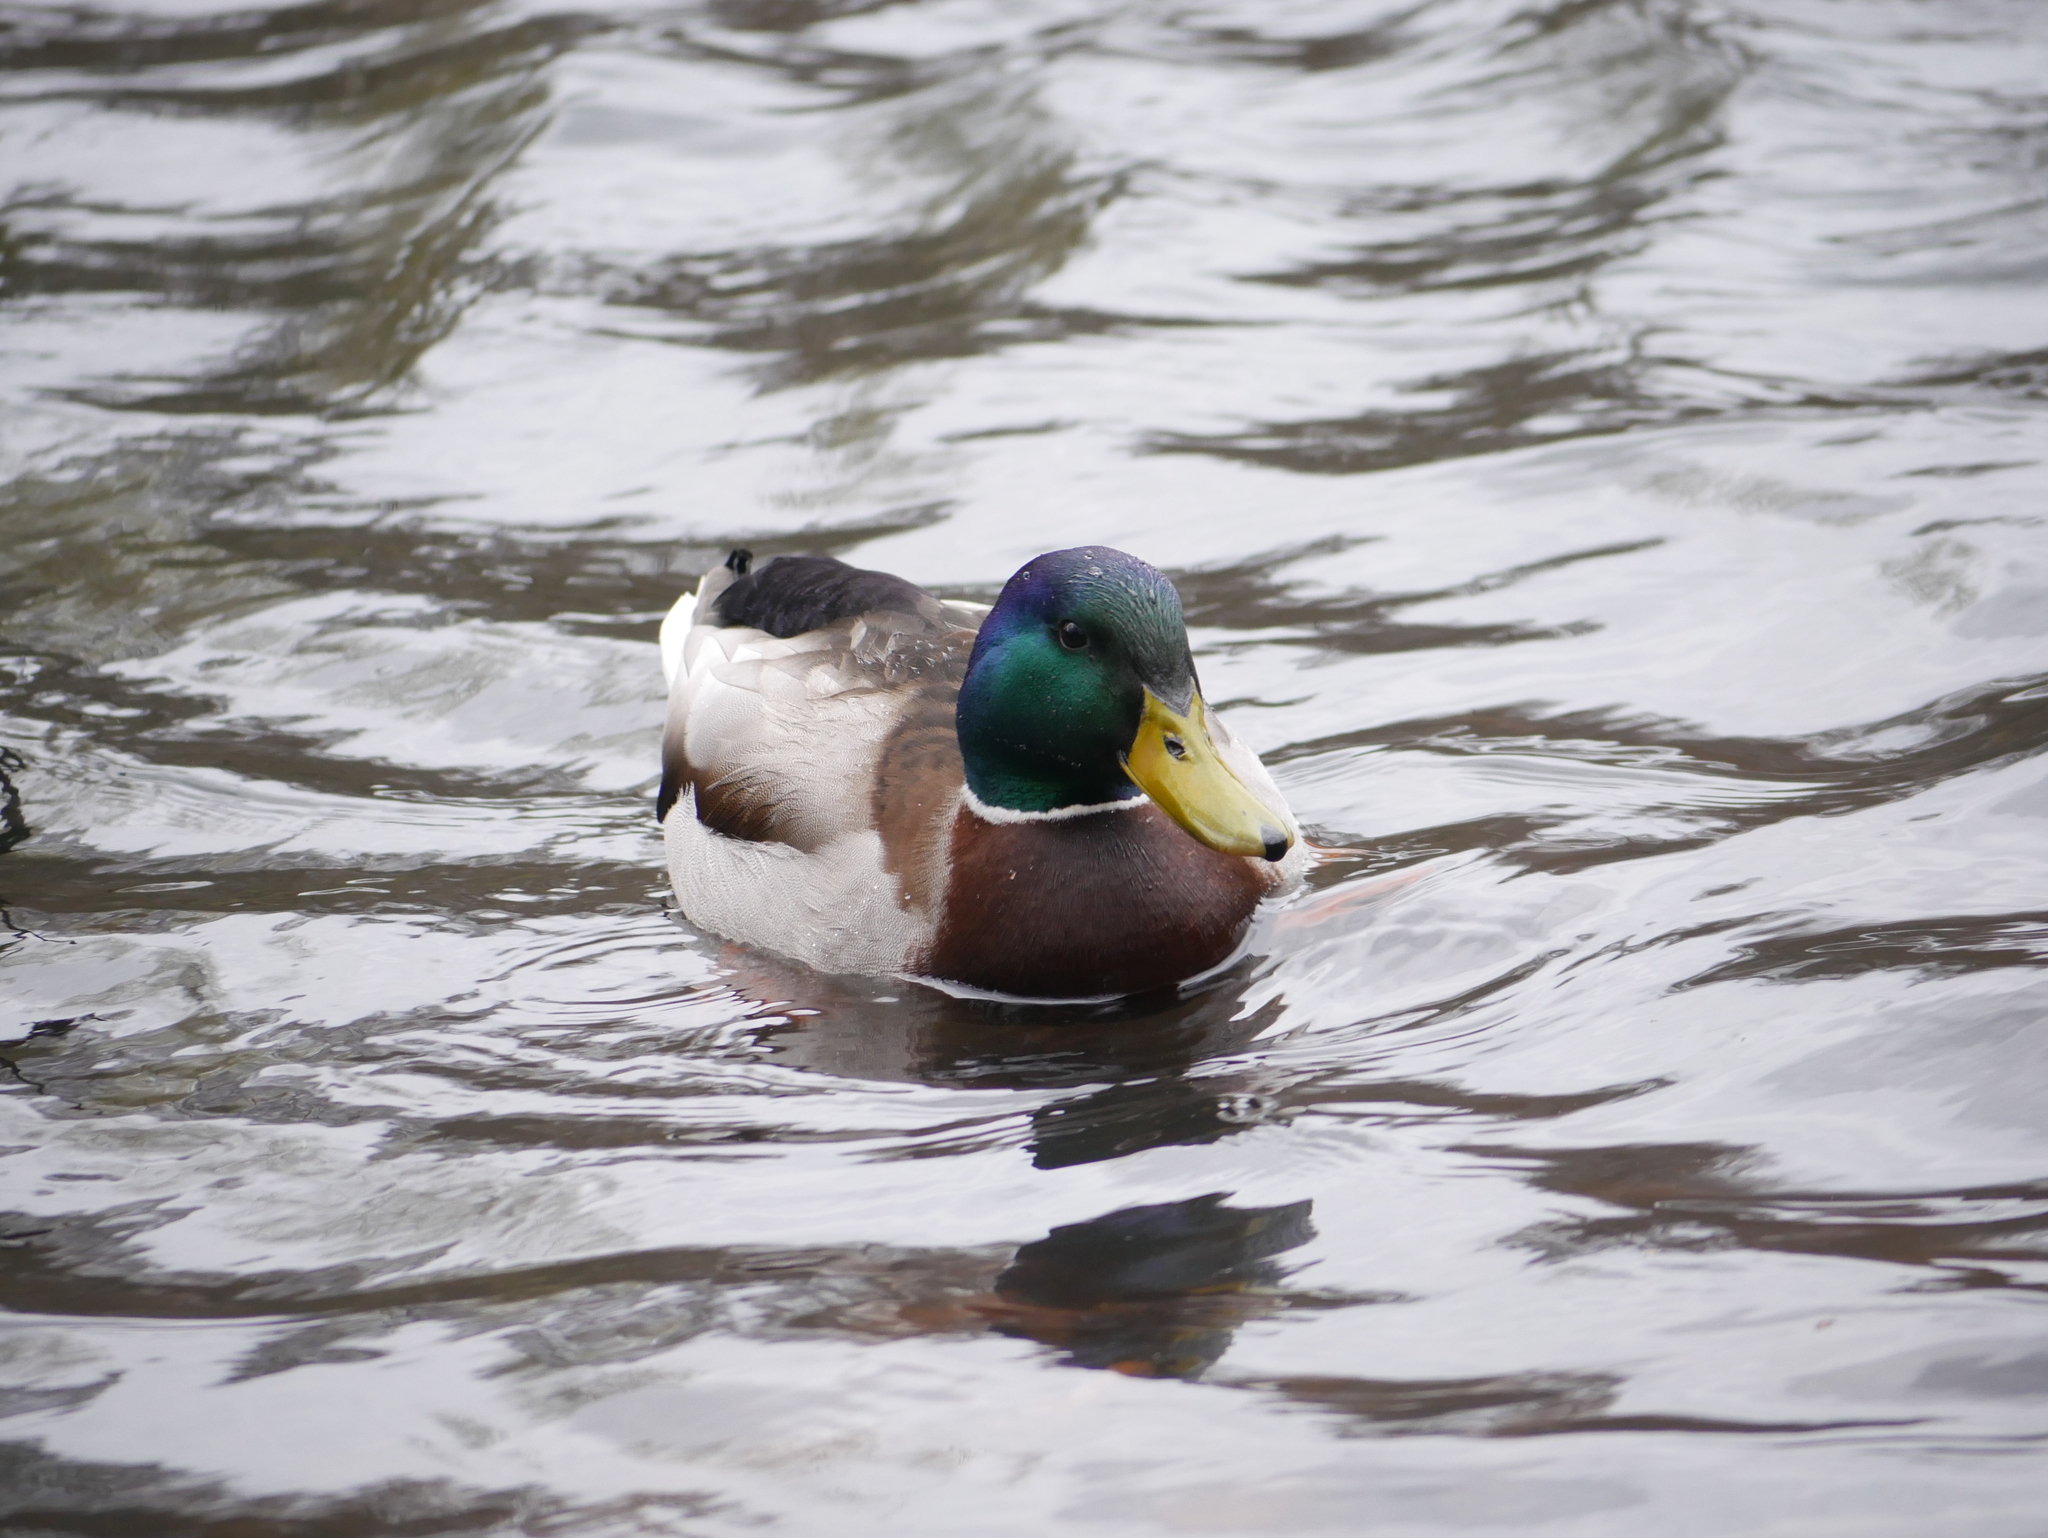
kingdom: Animalia
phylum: Chordata
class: Aves
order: Anseriformes
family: Anatidae
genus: Anas
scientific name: Anas platyrhynchos
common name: Mallard
